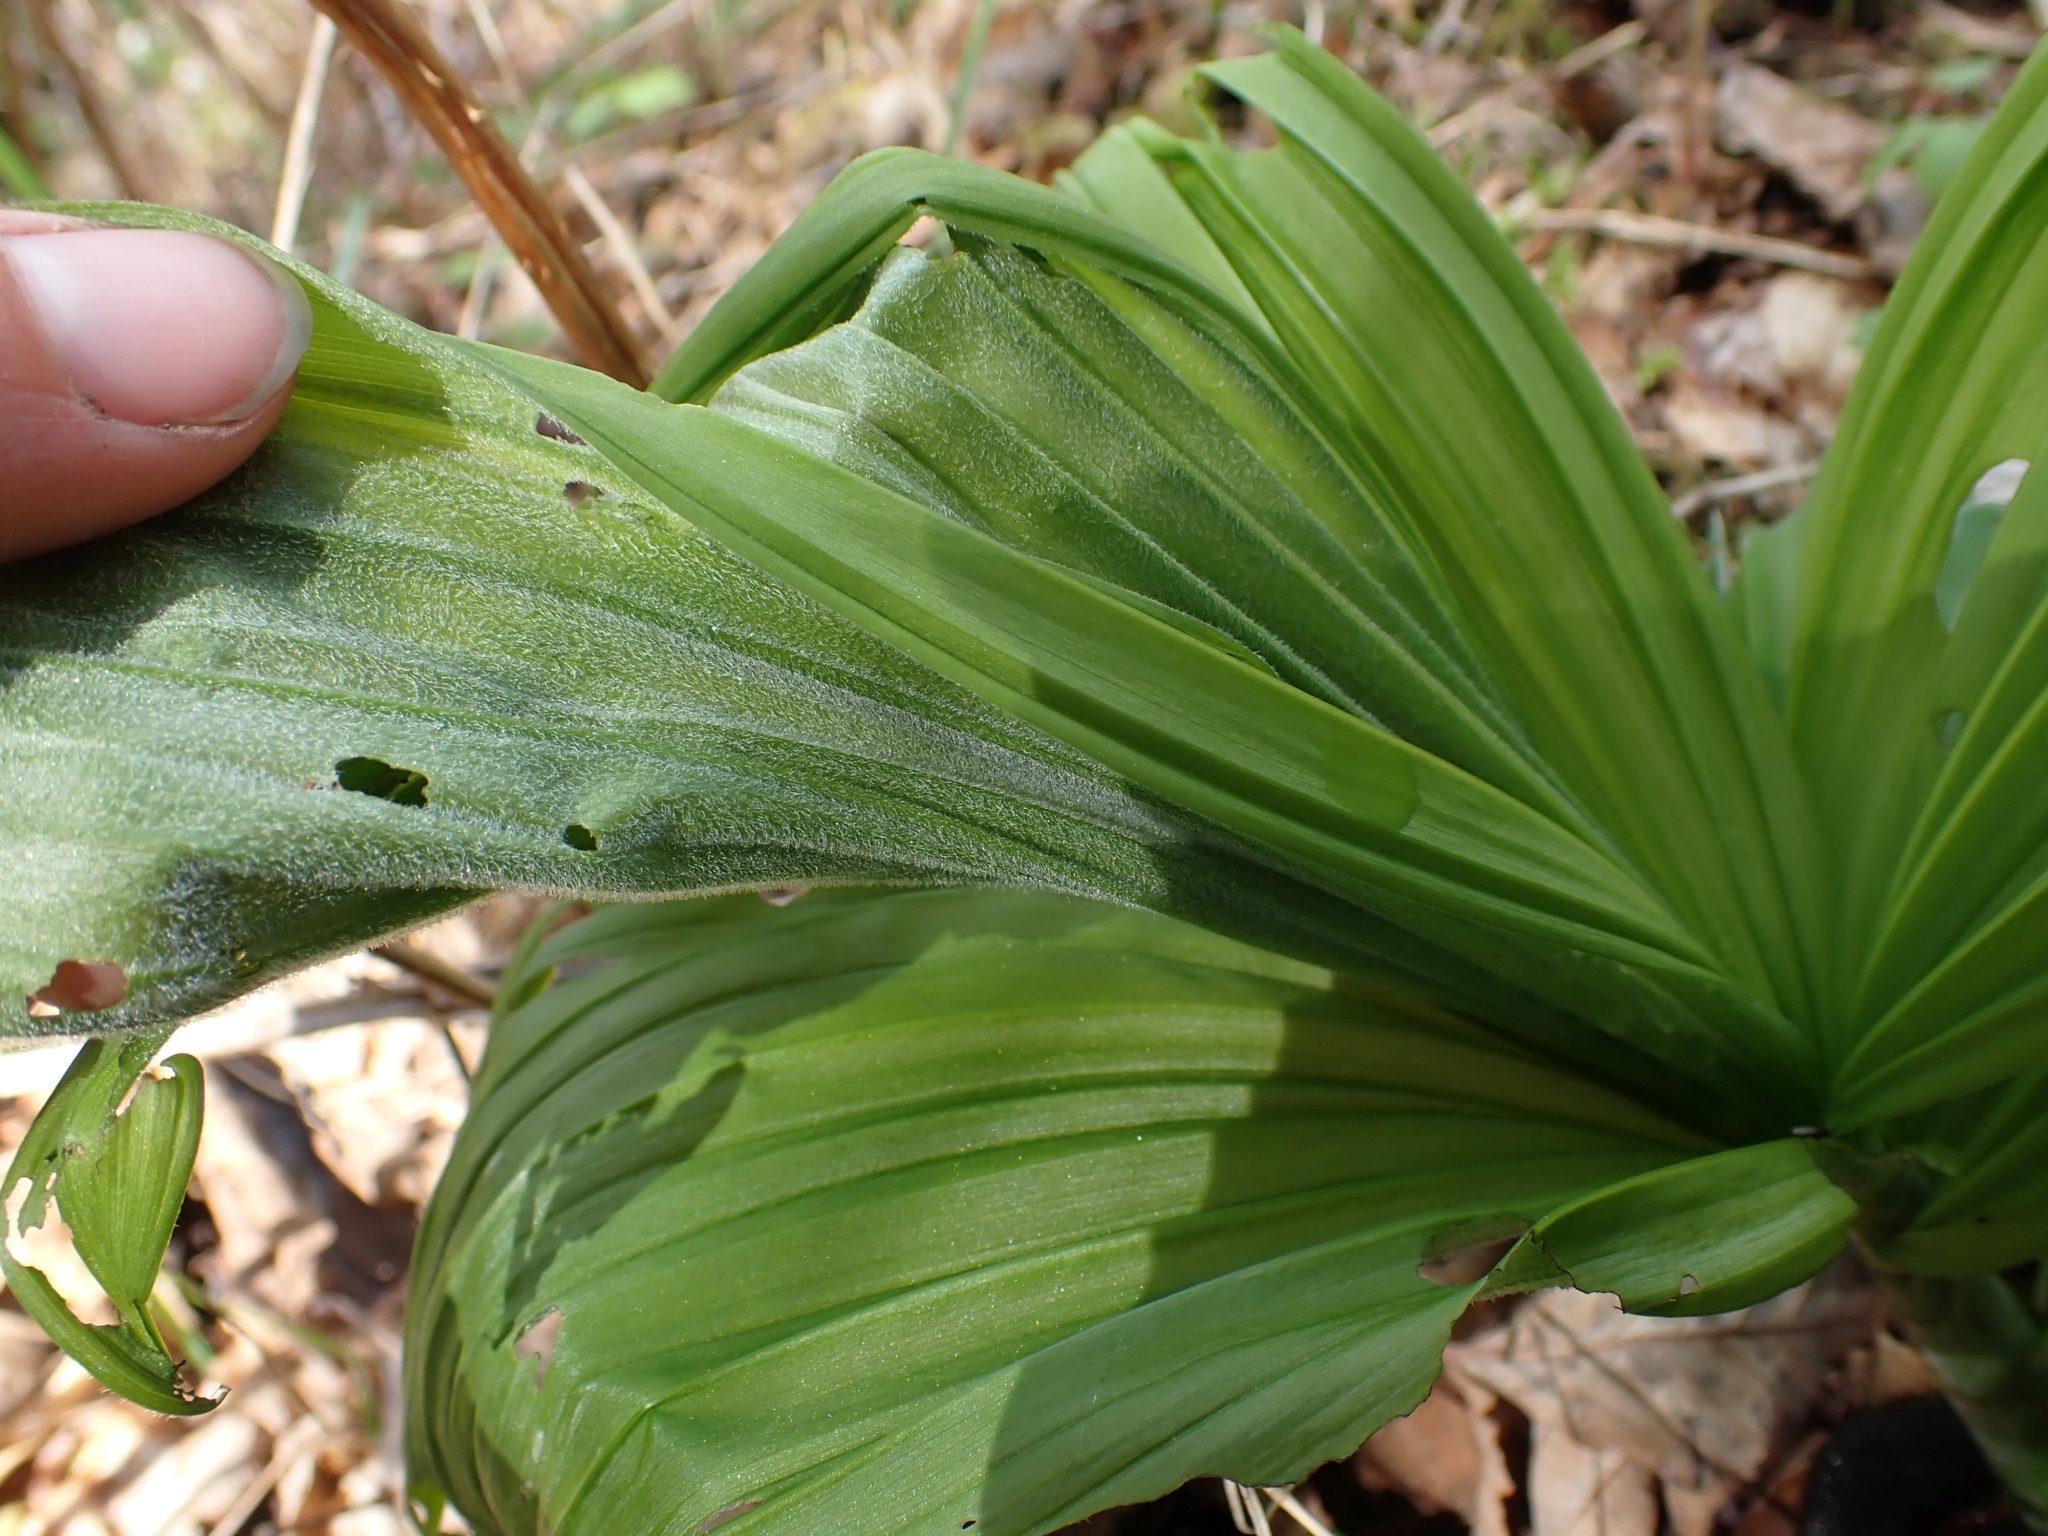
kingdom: Plantae
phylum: Tracheophyta
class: Liliopsida
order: Liliales
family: Melanthiaceae
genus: Veratrum
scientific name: Veratrum viride
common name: American false hellebore
